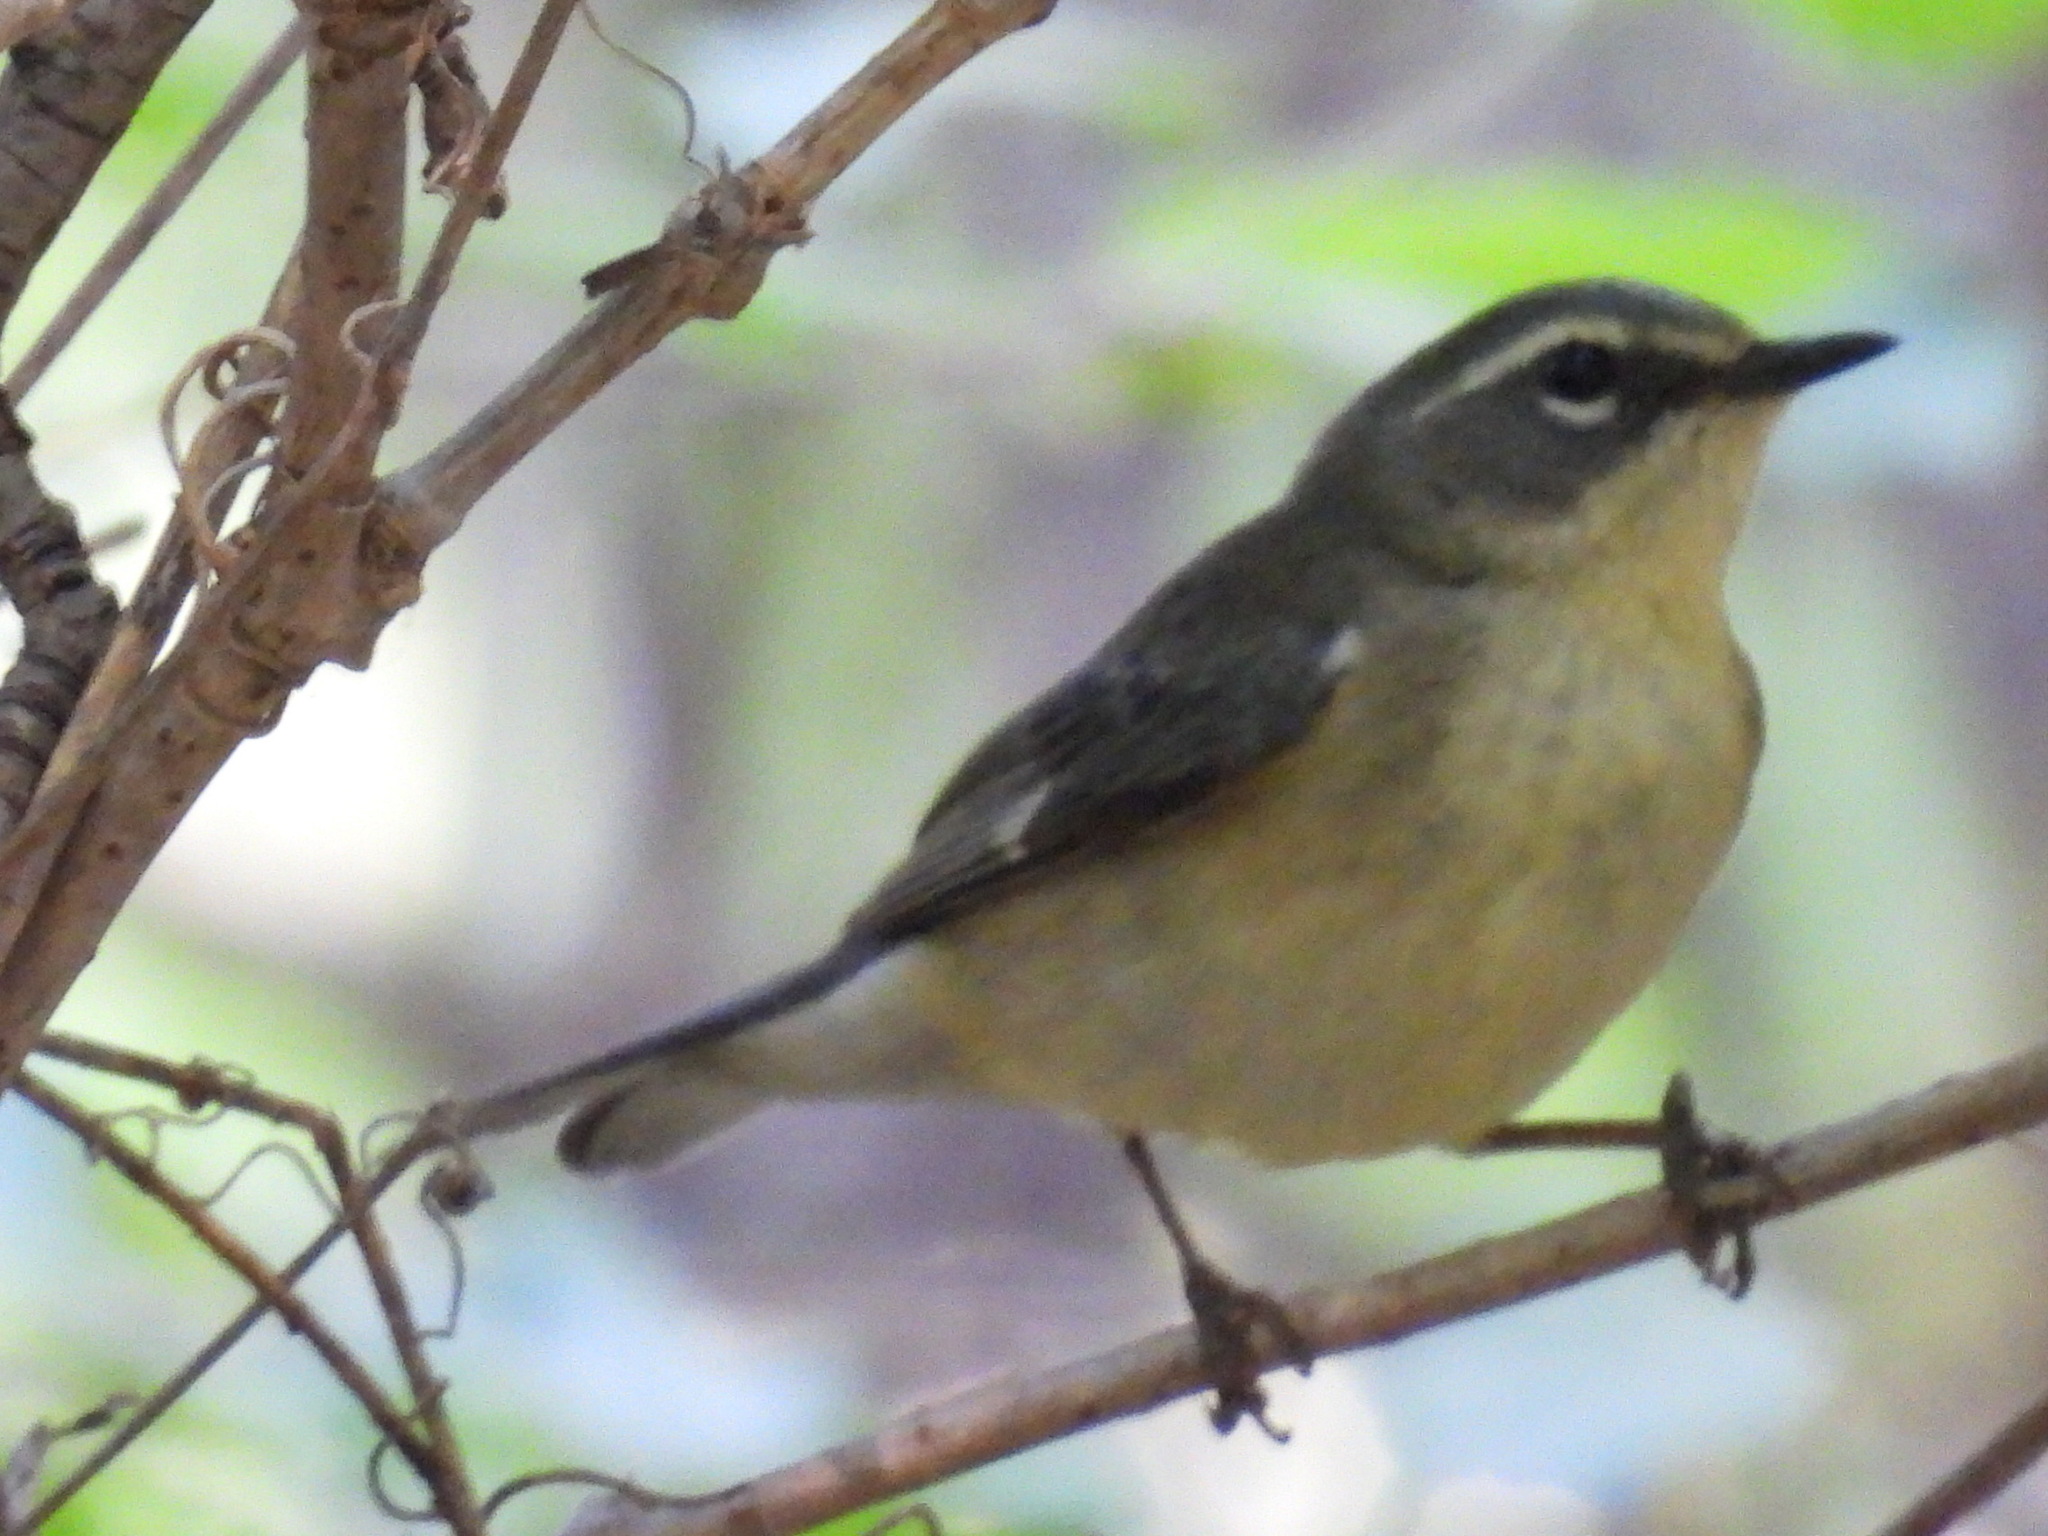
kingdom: Animalia
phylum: Chordata
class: Aves
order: Passeriformes
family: Parulidae
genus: Setophaga
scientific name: Setophaga caerulescens
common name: Black-throated blue warbler
